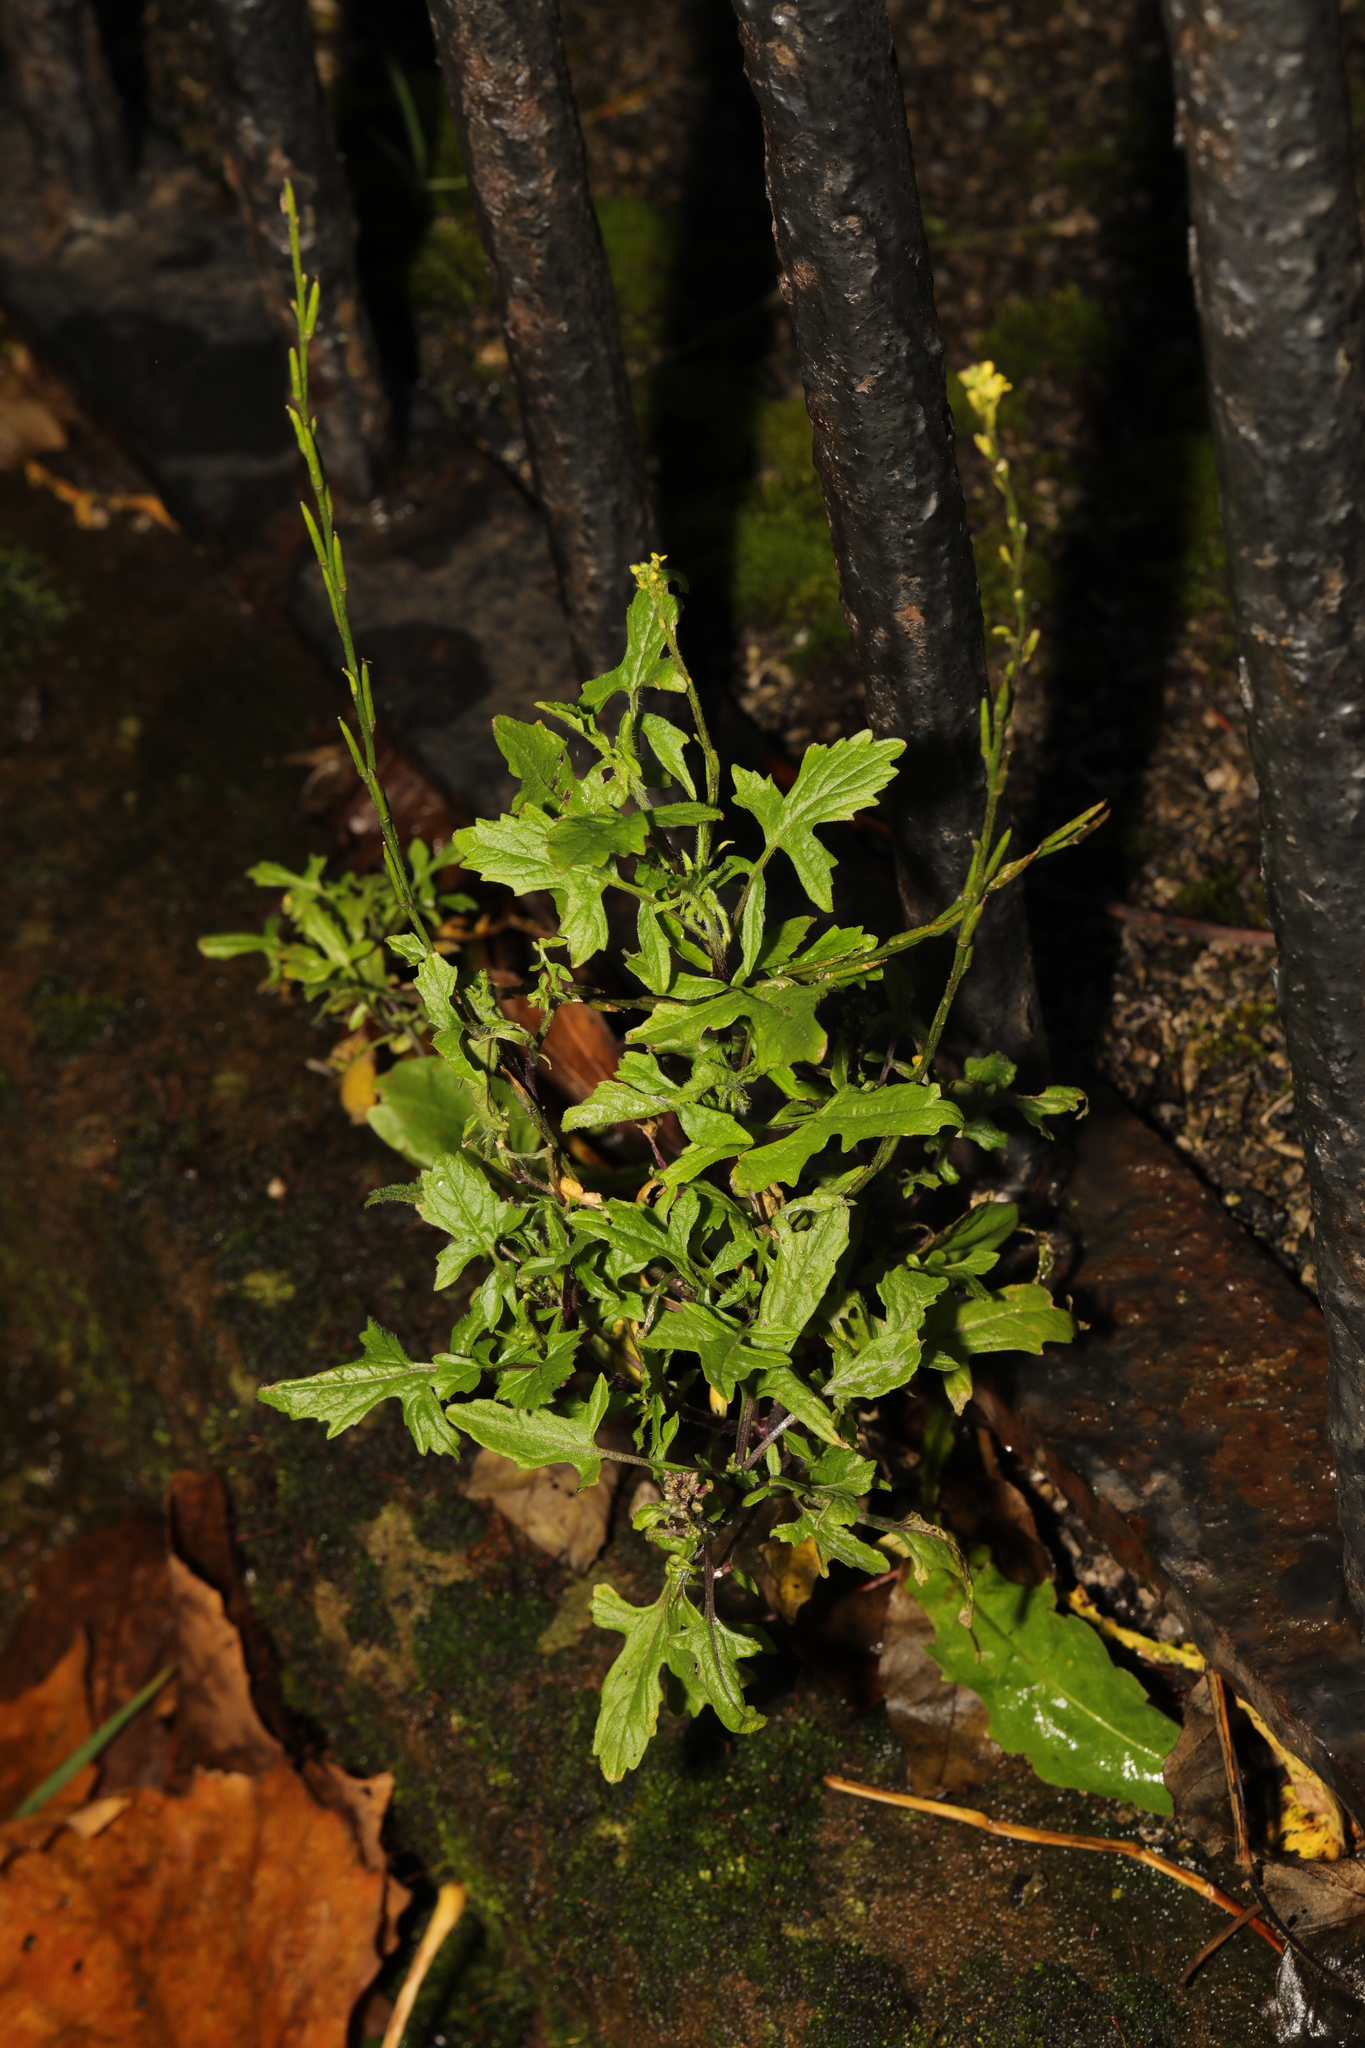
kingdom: Plantae
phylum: Tracheophyta
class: Magnoliopsida
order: Brassicales
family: Brassicaceae
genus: Sisymbrium
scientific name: Sisymbrium officinale
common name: Hedge mustard
